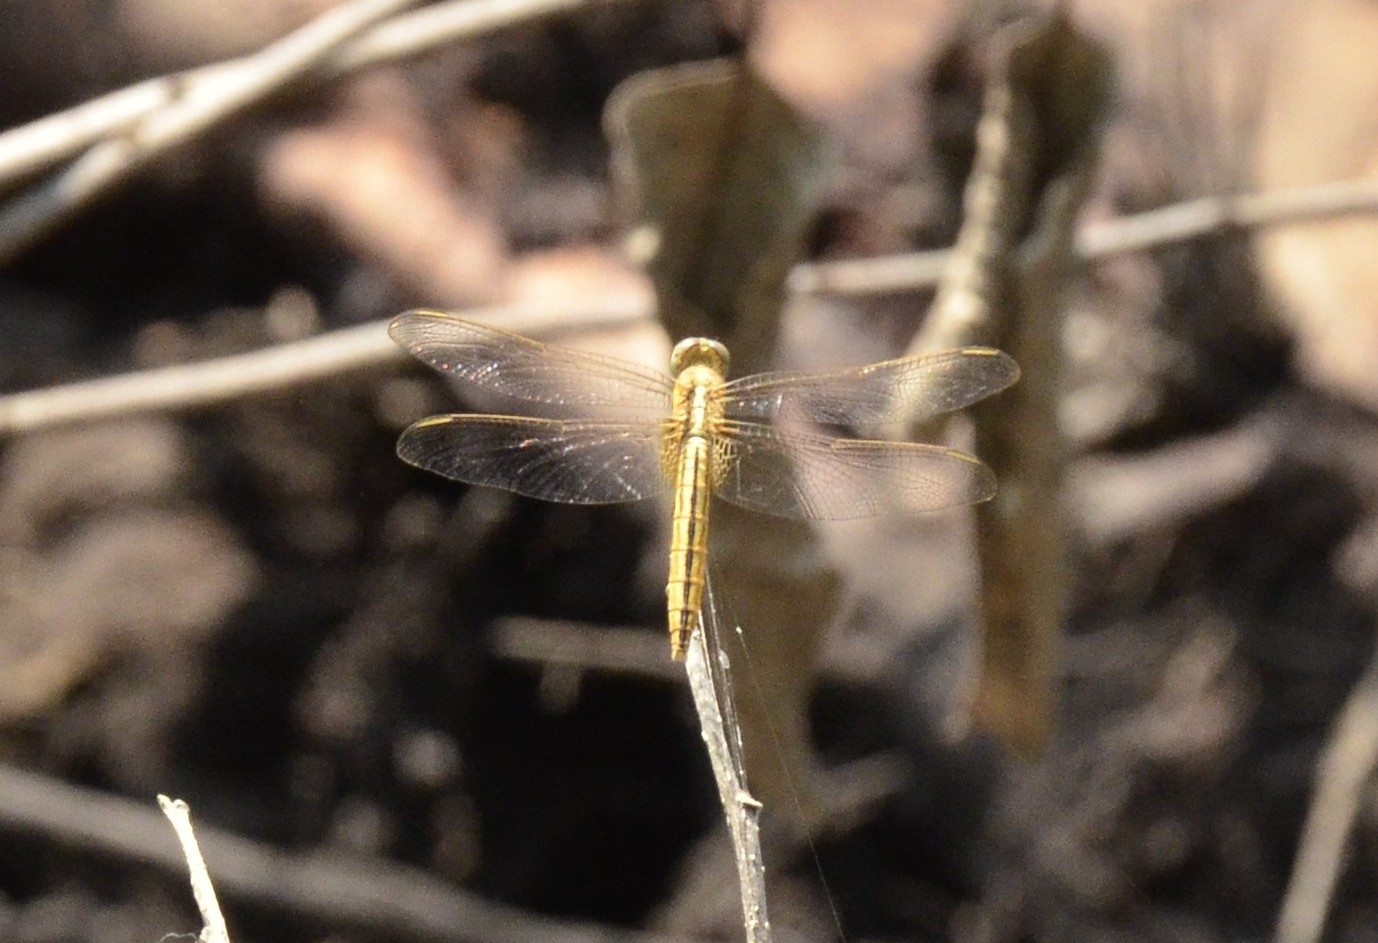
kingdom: Animalia
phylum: Arthropoda
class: Insecta
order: Odonata
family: Libellulidae
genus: Crocothemis
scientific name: Crocothemis servilia
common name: Scarlet skimmer
